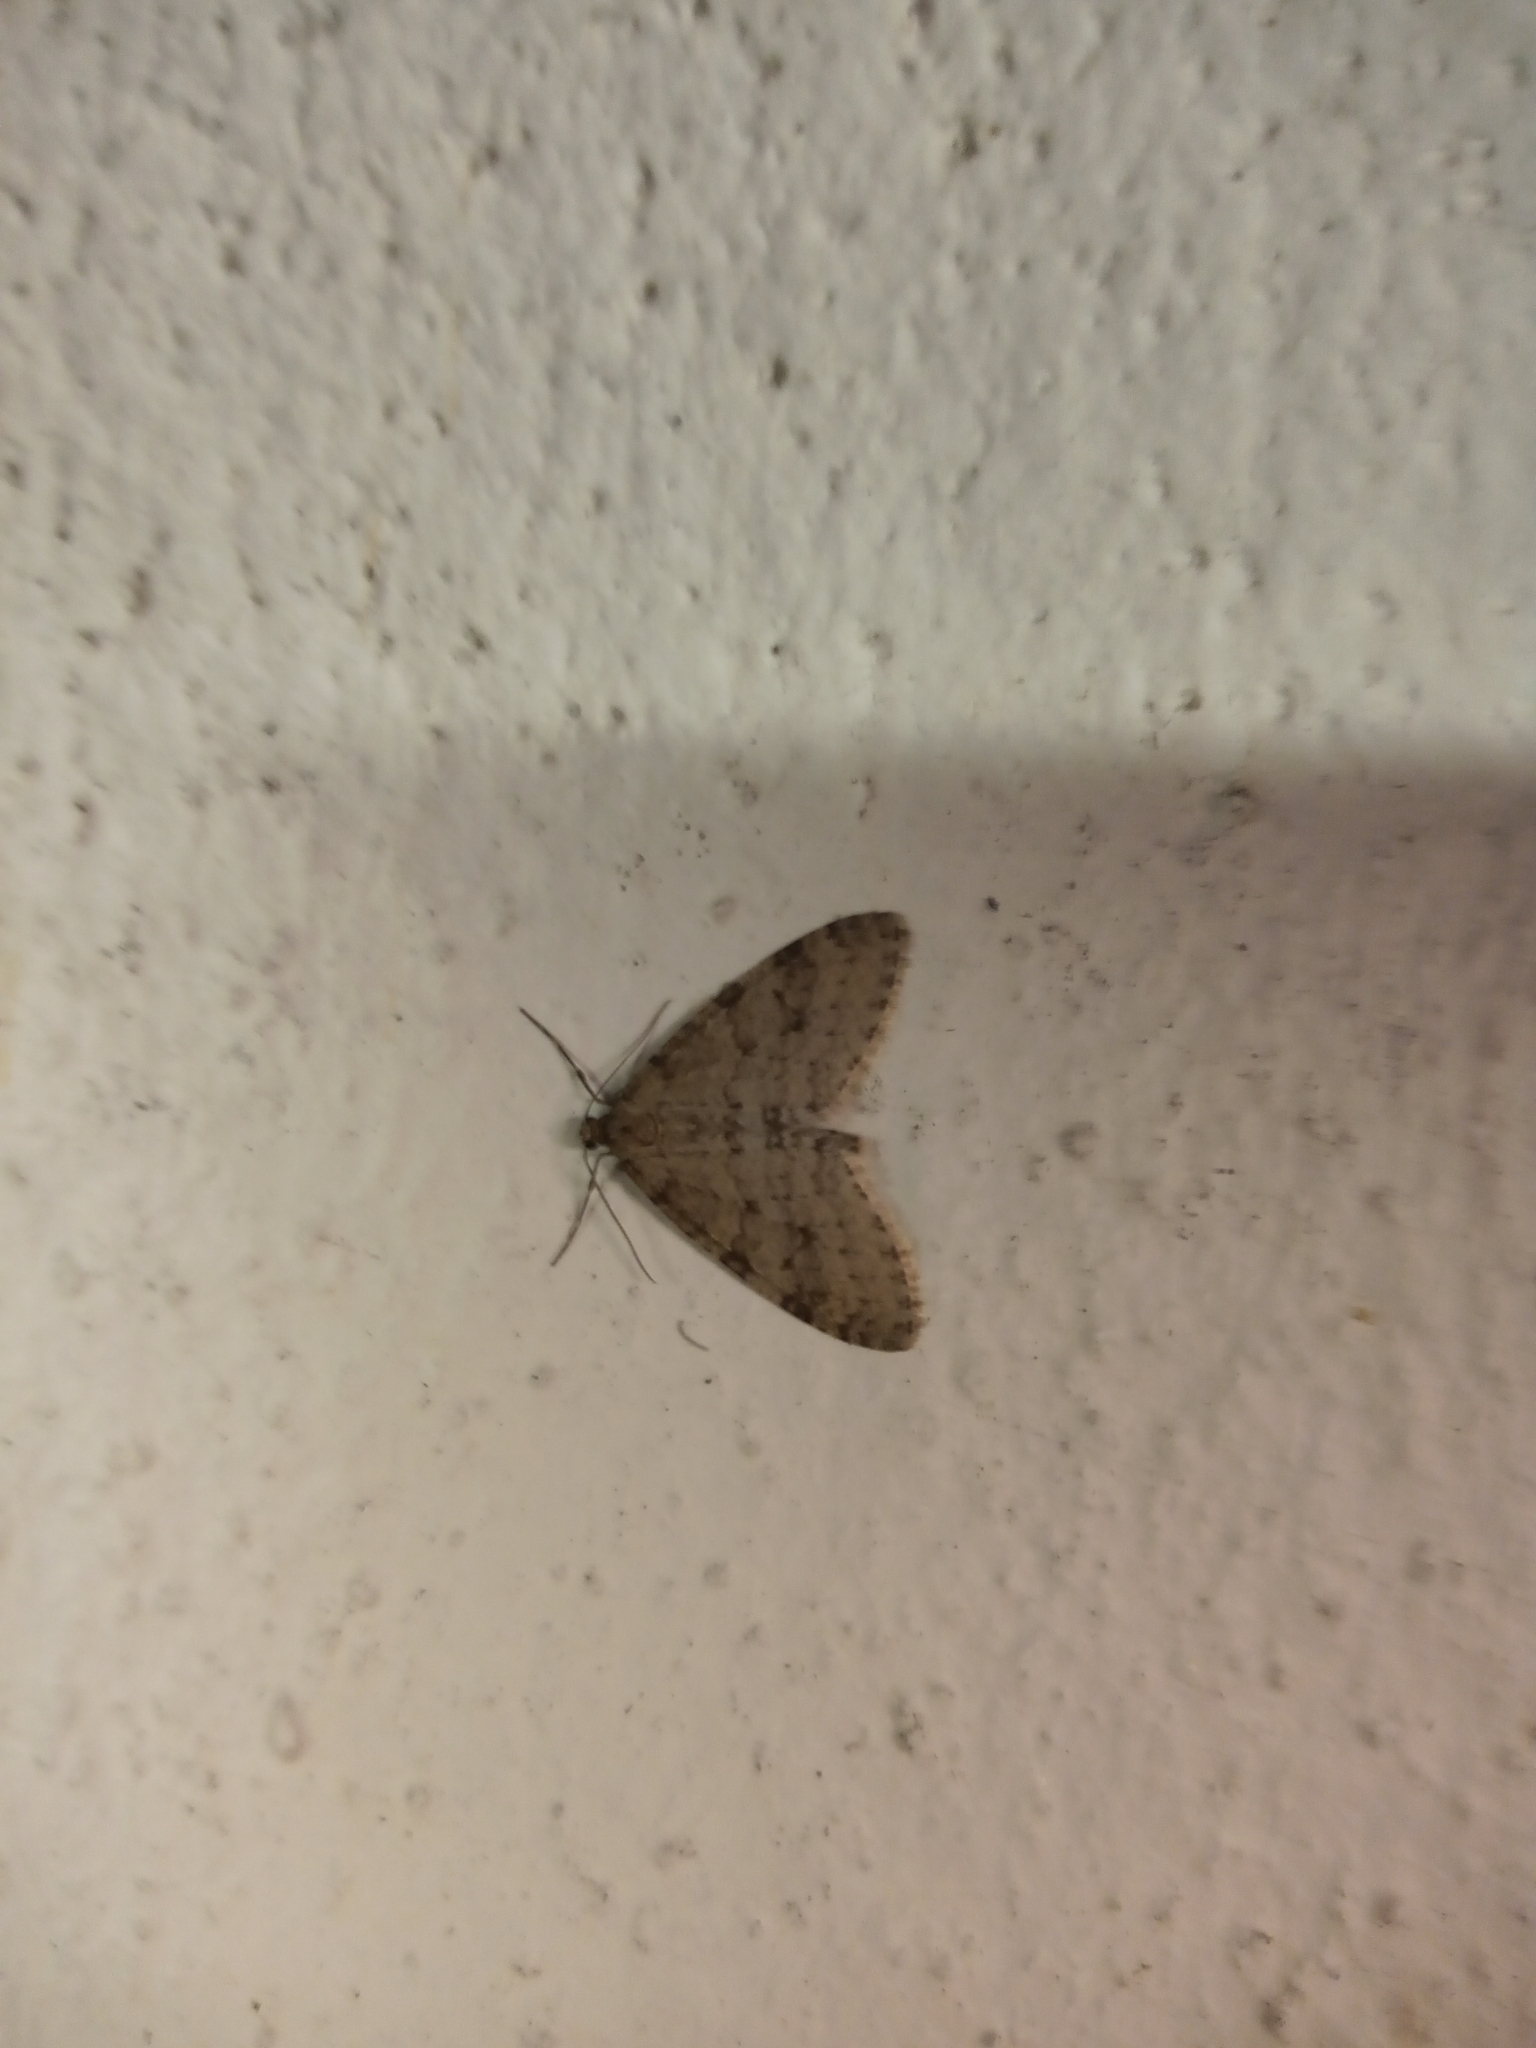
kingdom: Animalia
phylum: Arthropoda
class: Insecta
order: Lepidoptera
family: Geometridae
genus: Trichopteryx
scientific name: Trichopteryx carpinata
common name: Early tooth-striped
